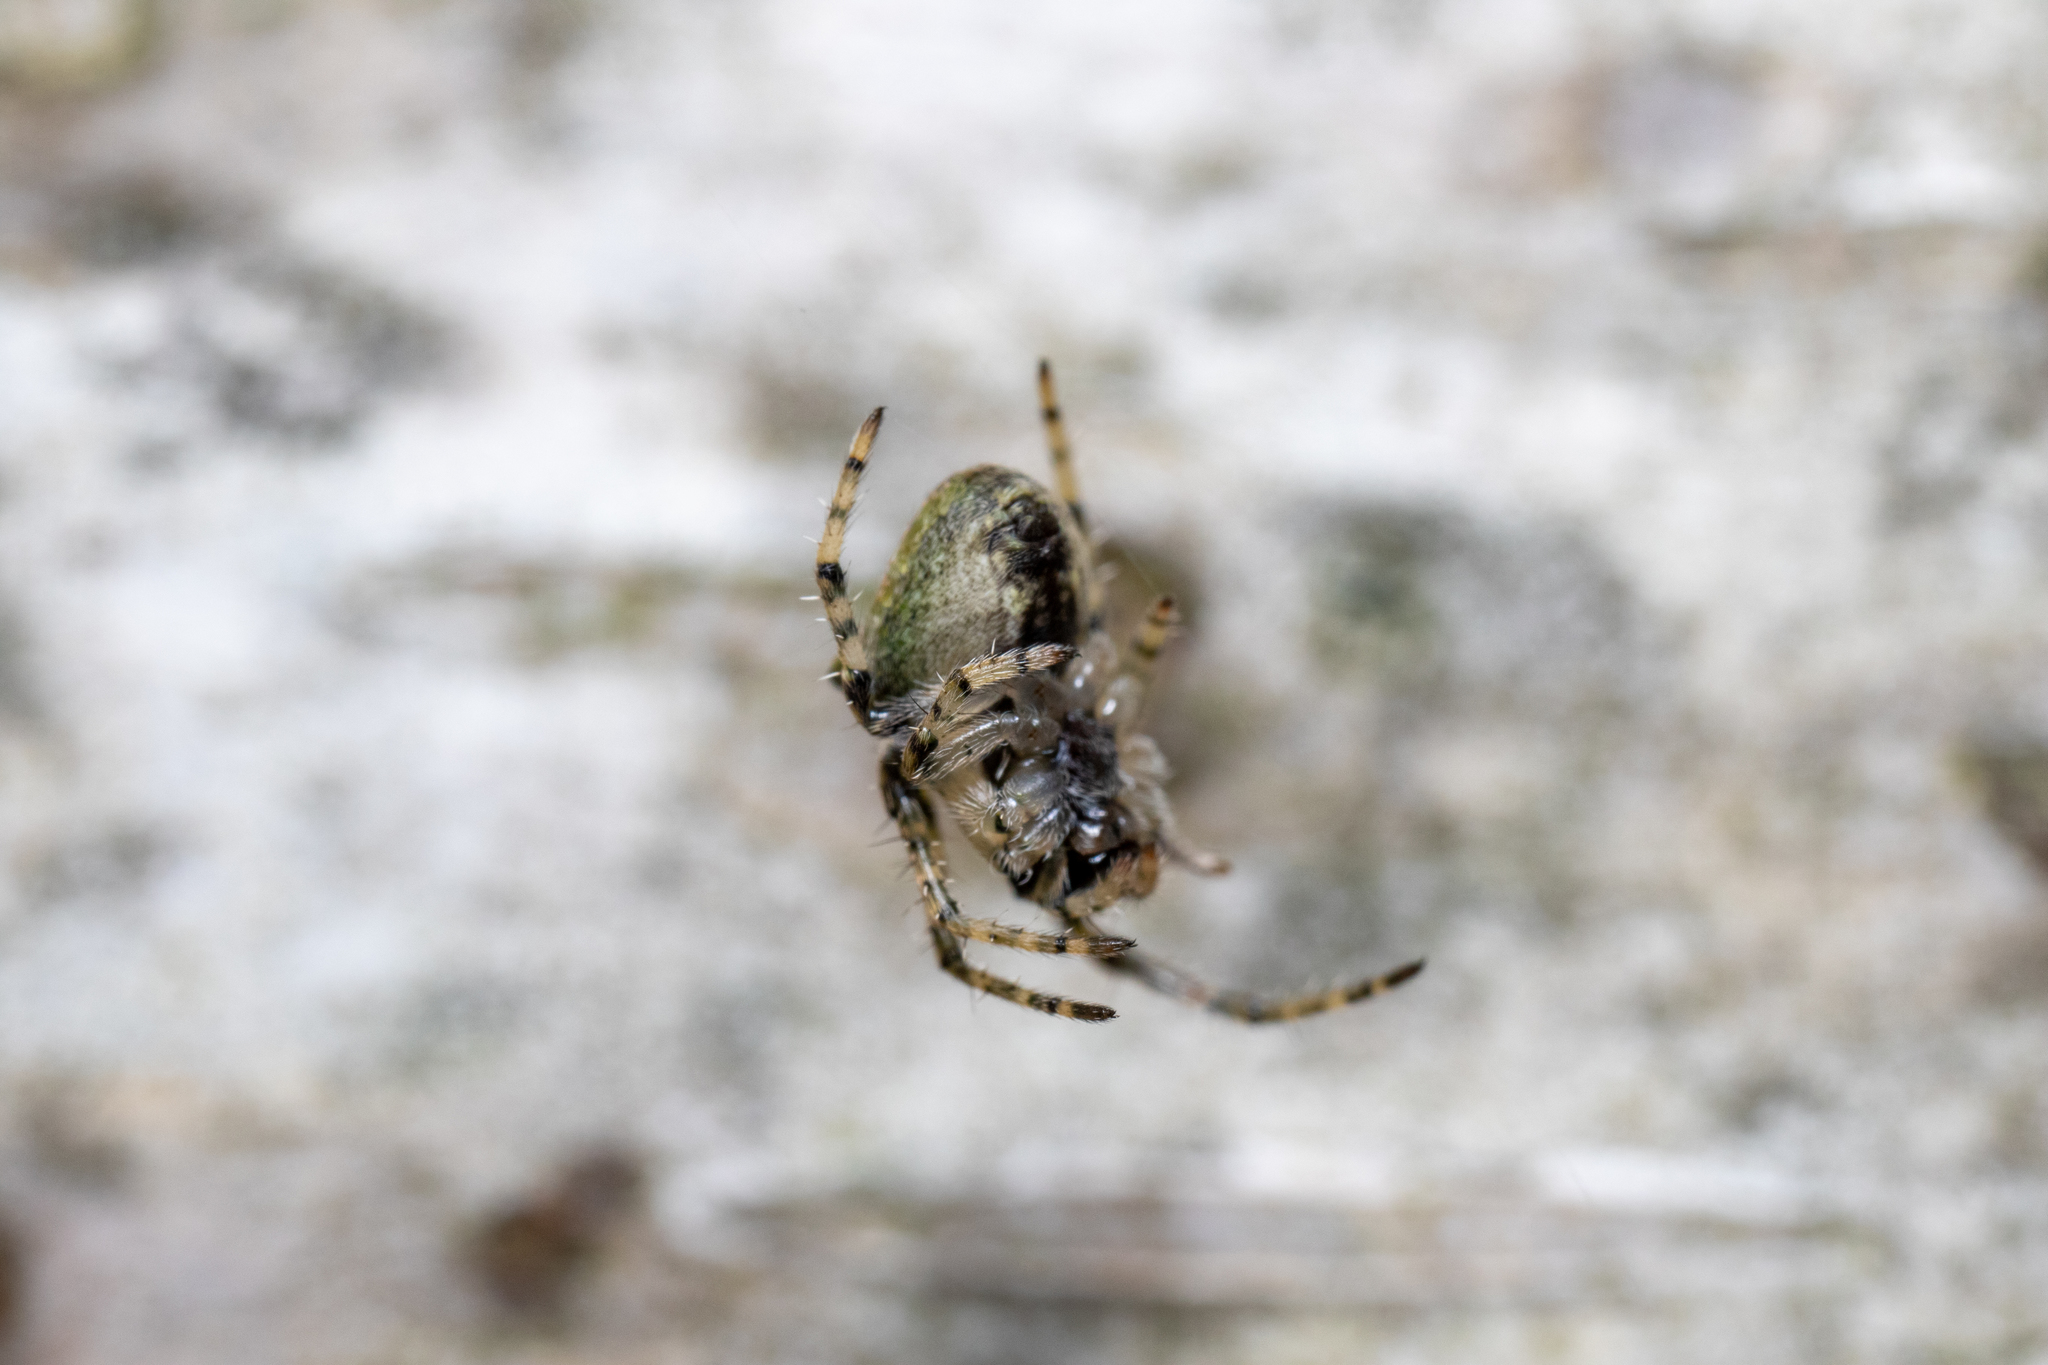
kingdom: Animalia
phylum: Arthropoda
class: Arachnida
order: Araneae
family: Araneidae
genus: Gibbaranea
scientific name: Gibbaranea gibbosa
